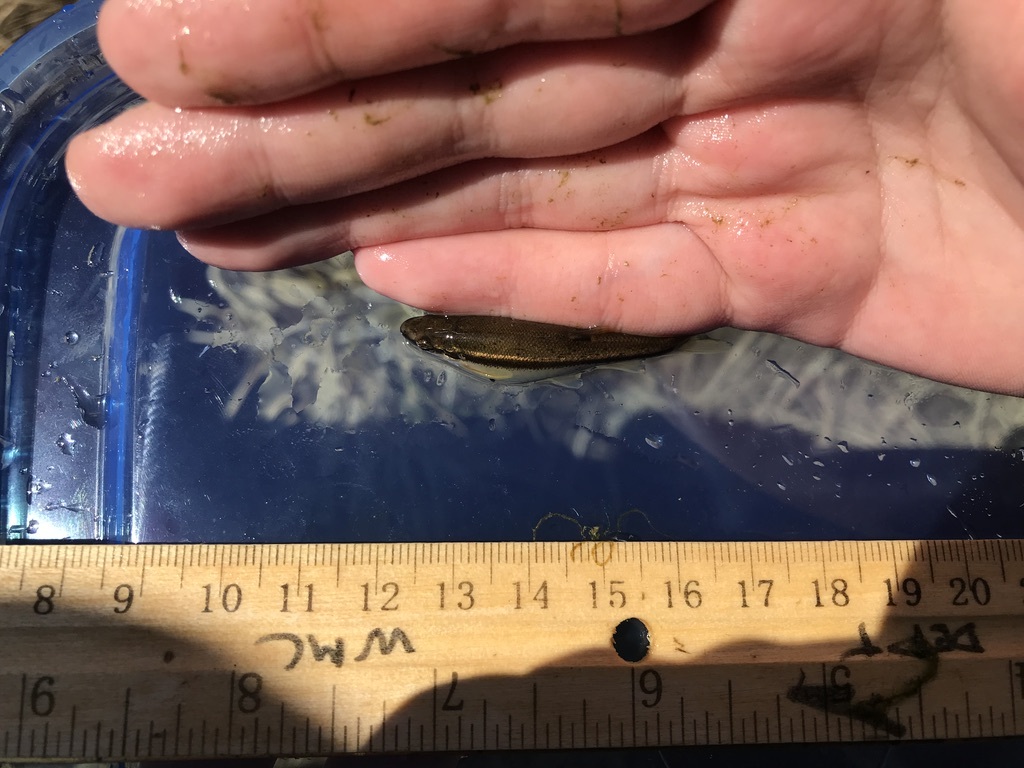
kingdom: Animalia
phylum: Chordata
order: Cypriniformes
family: Cyprinidae
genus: Rhinichthys
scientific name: Rhinichthys atratulus
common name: Eastern blacknose dace
